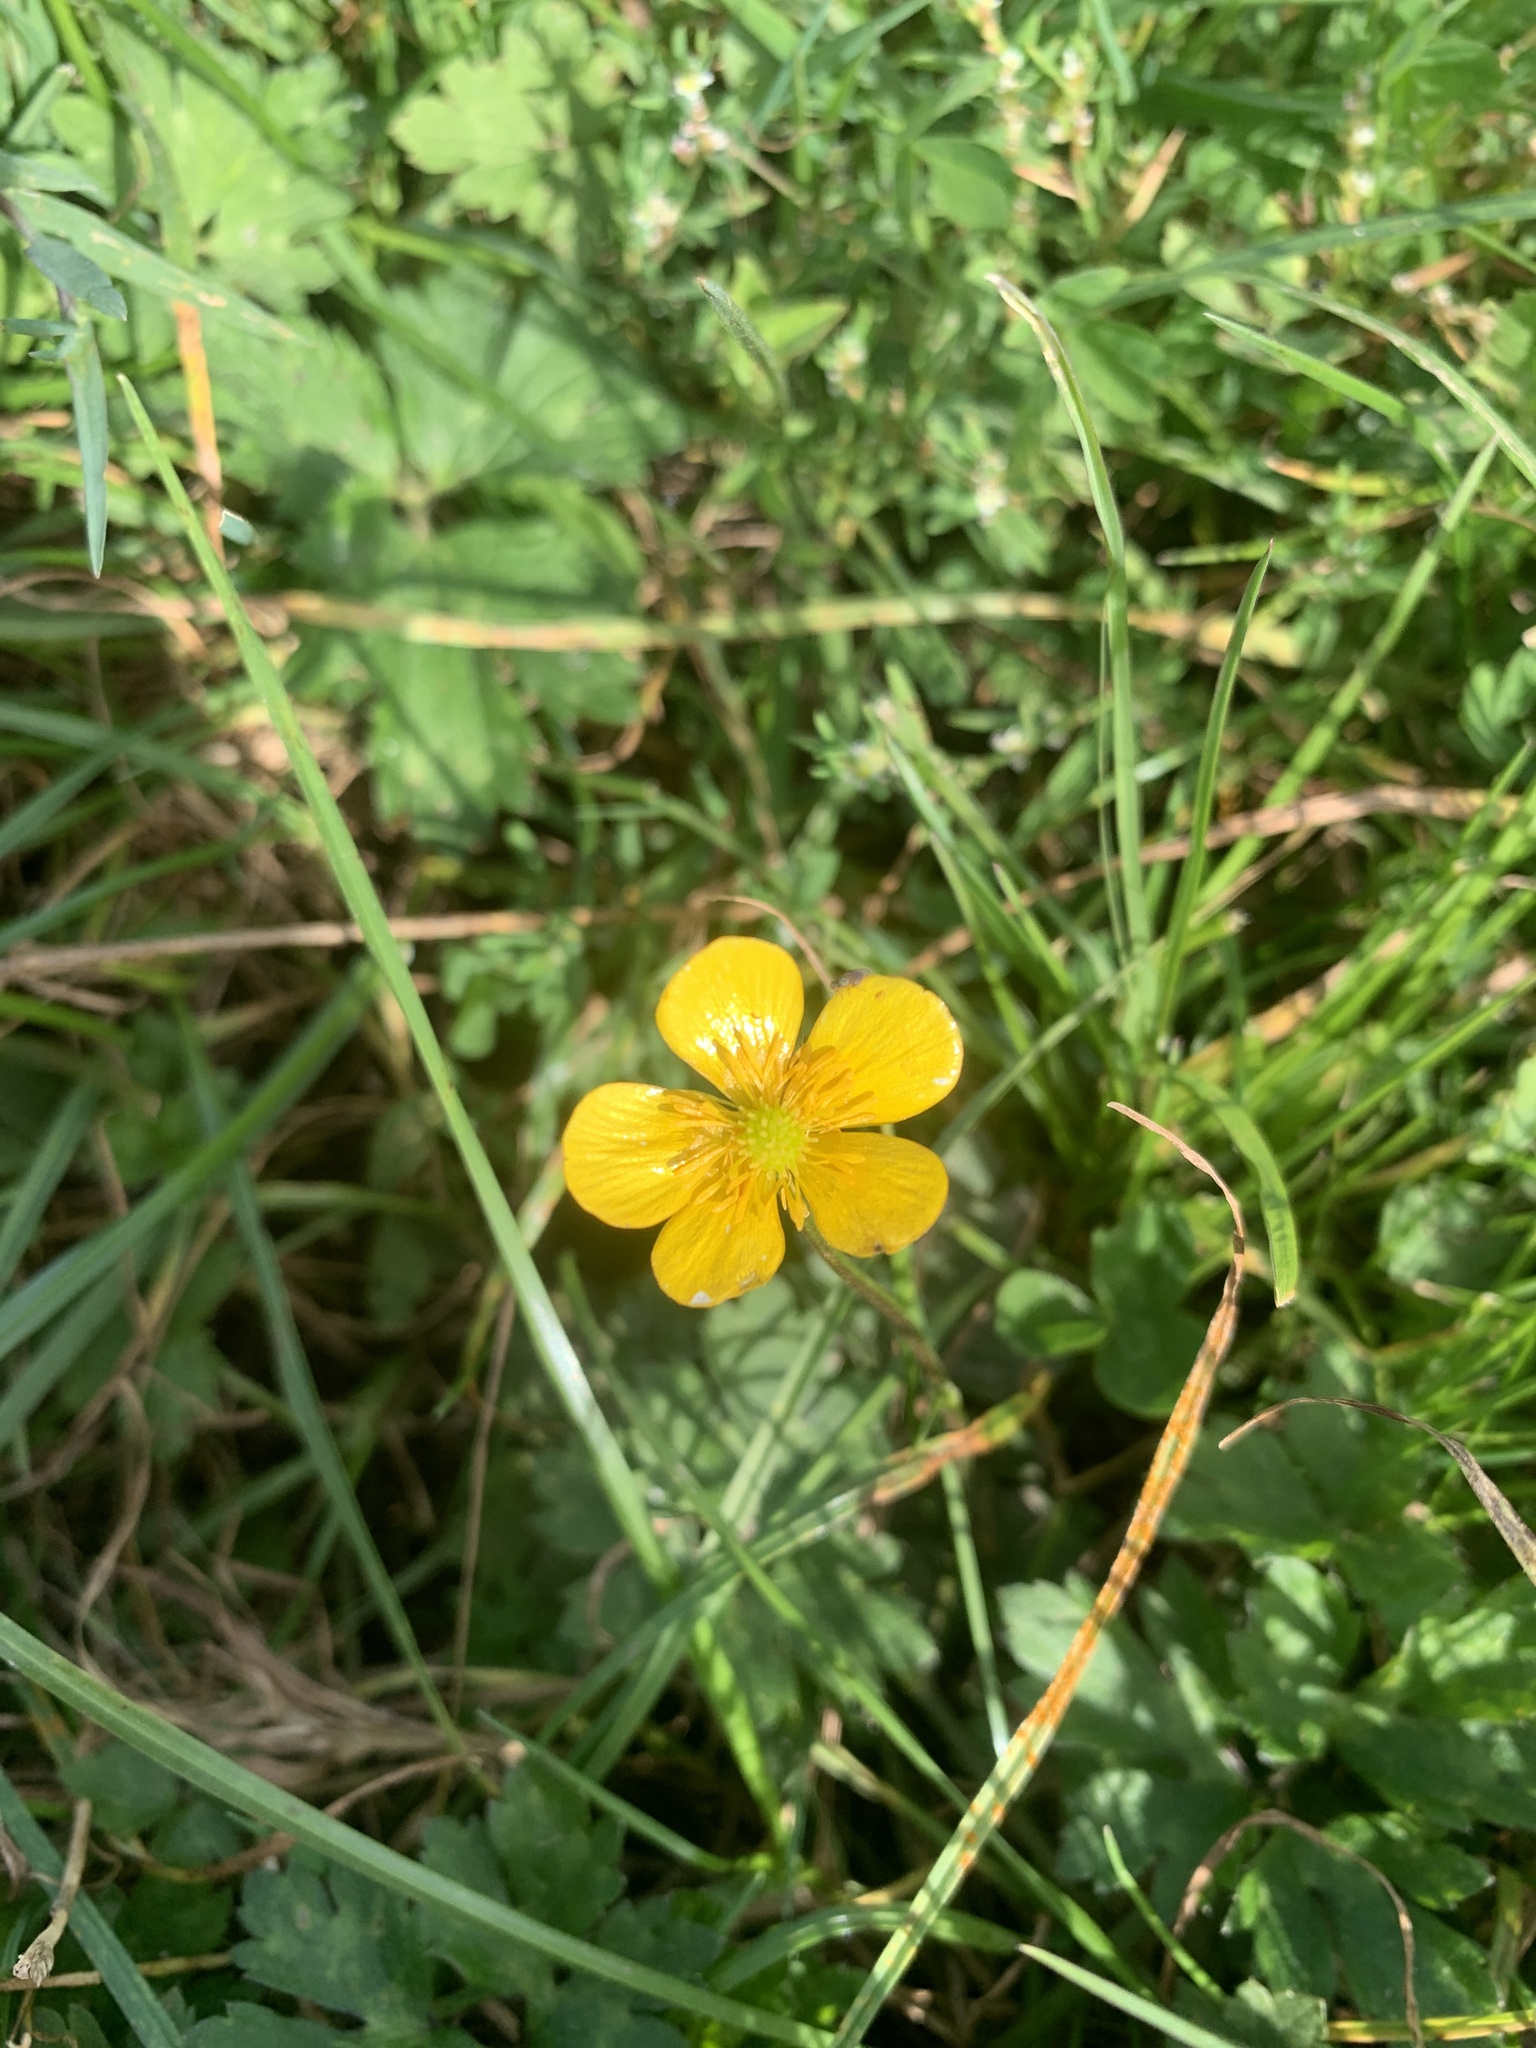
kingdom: Plantae
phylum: Tracheophyta
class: Magnoliopsida
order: Ranunculales
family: Ranunculaceae
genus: Ranunculus
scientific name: Ranunculus repens
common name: Creeping buttercup
